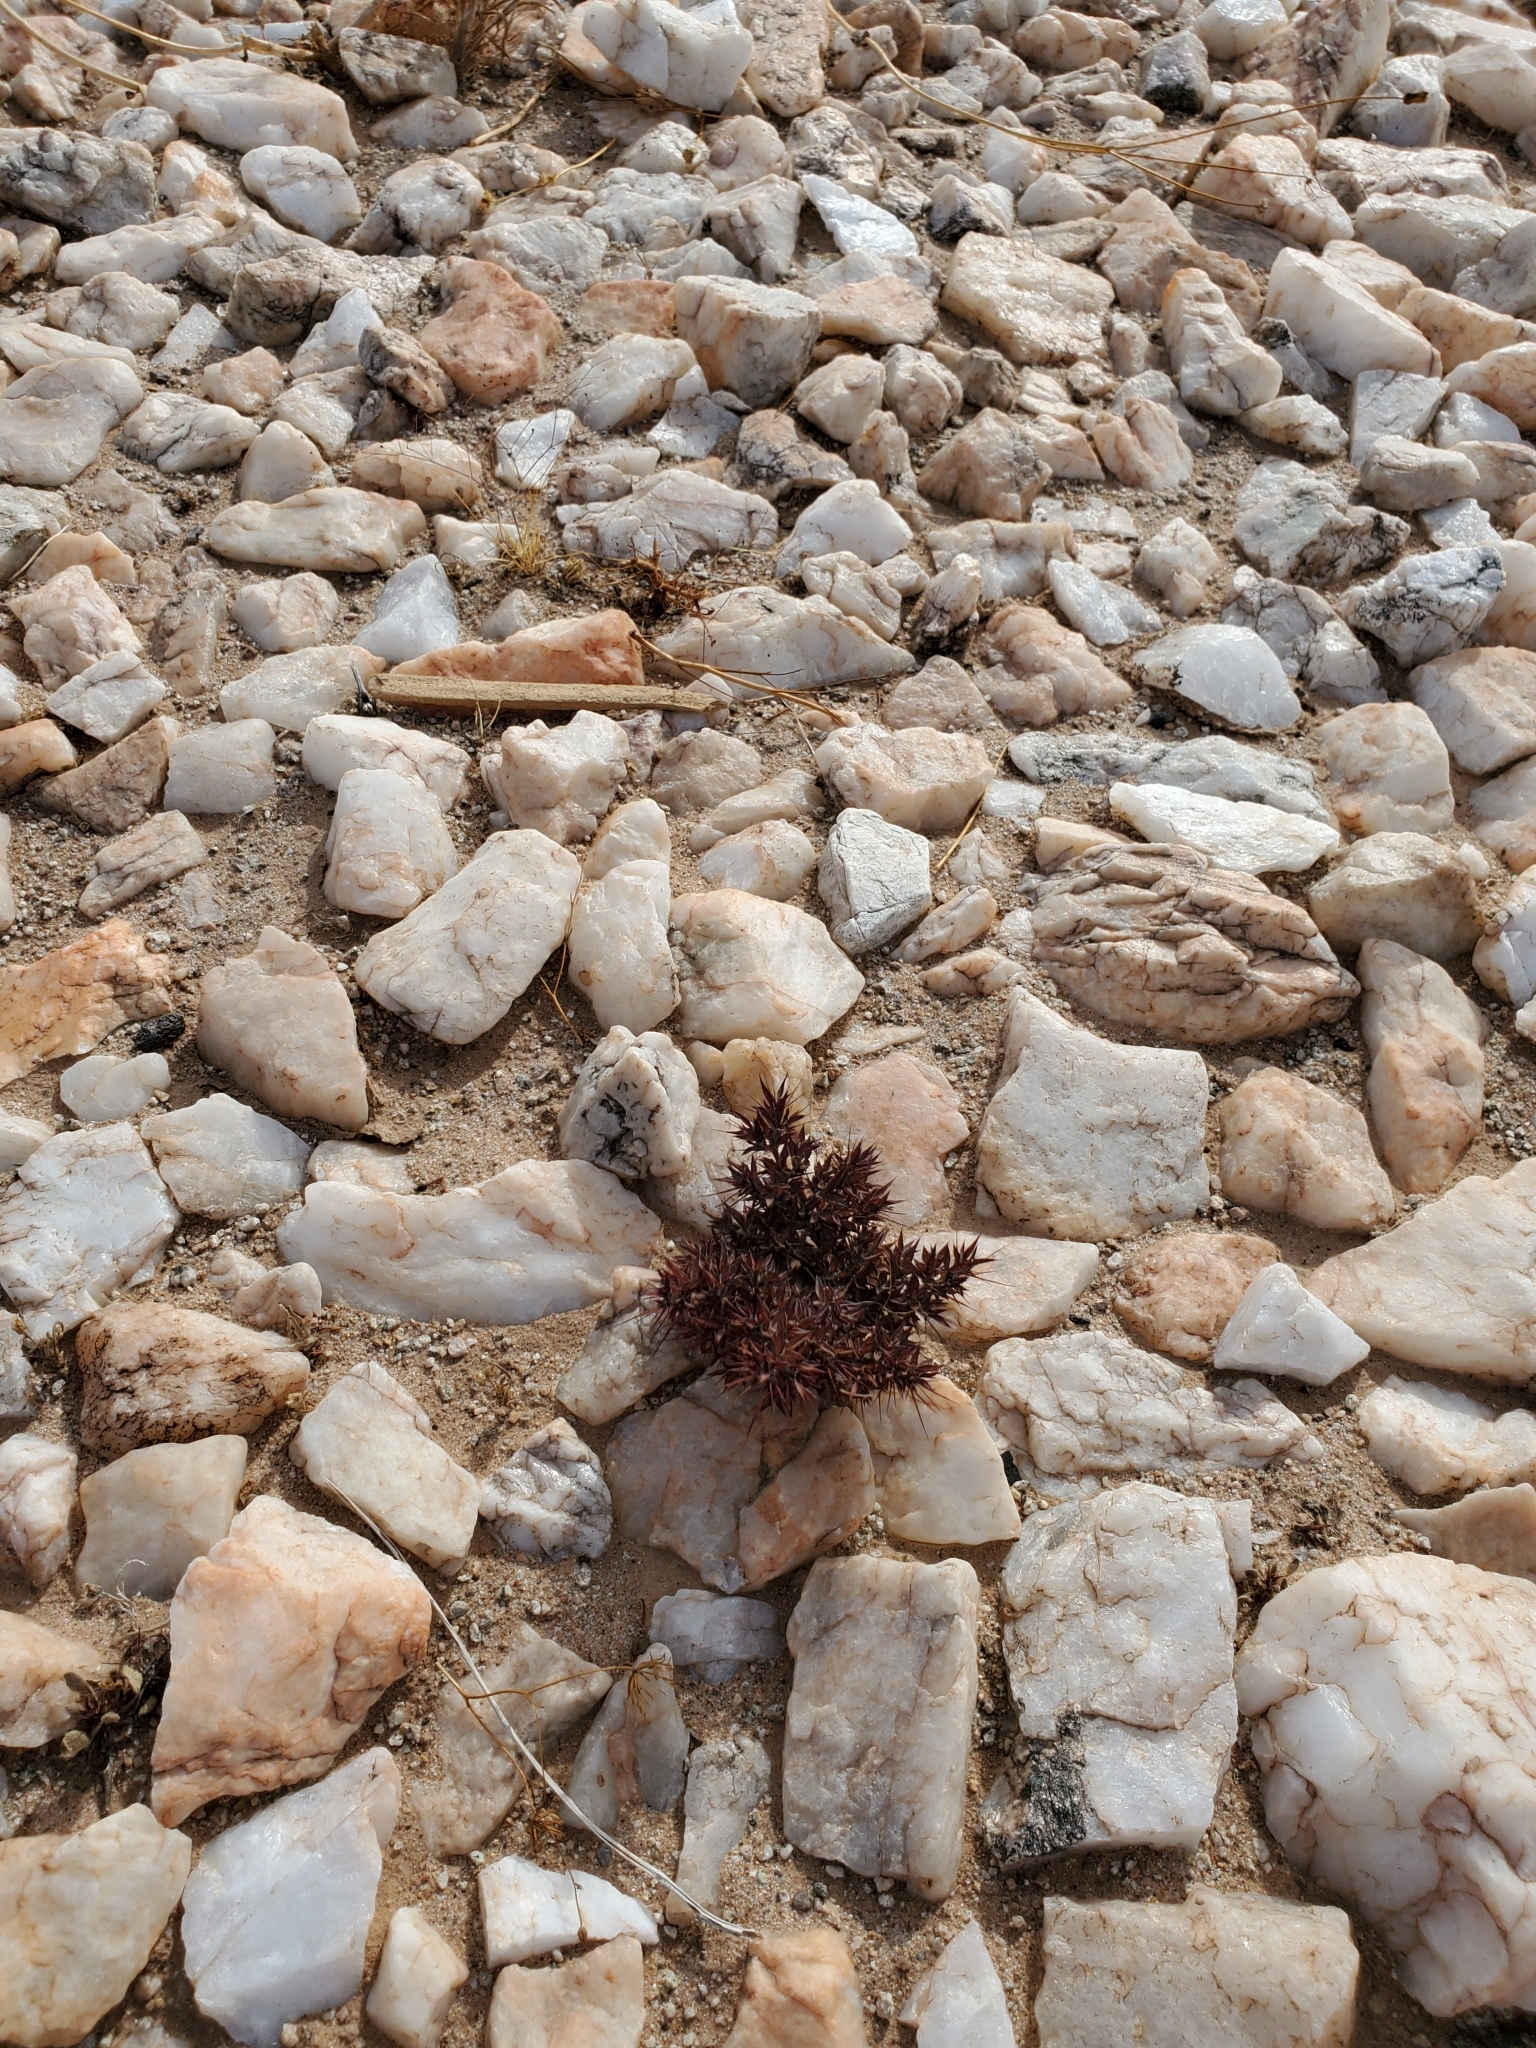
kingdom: Plantae
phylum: Tracheophyta
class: Magnoliopsida
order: Caryophyllales
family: Polygonaceae
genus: Chorizanthe
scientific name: Chorizanthe rigida
